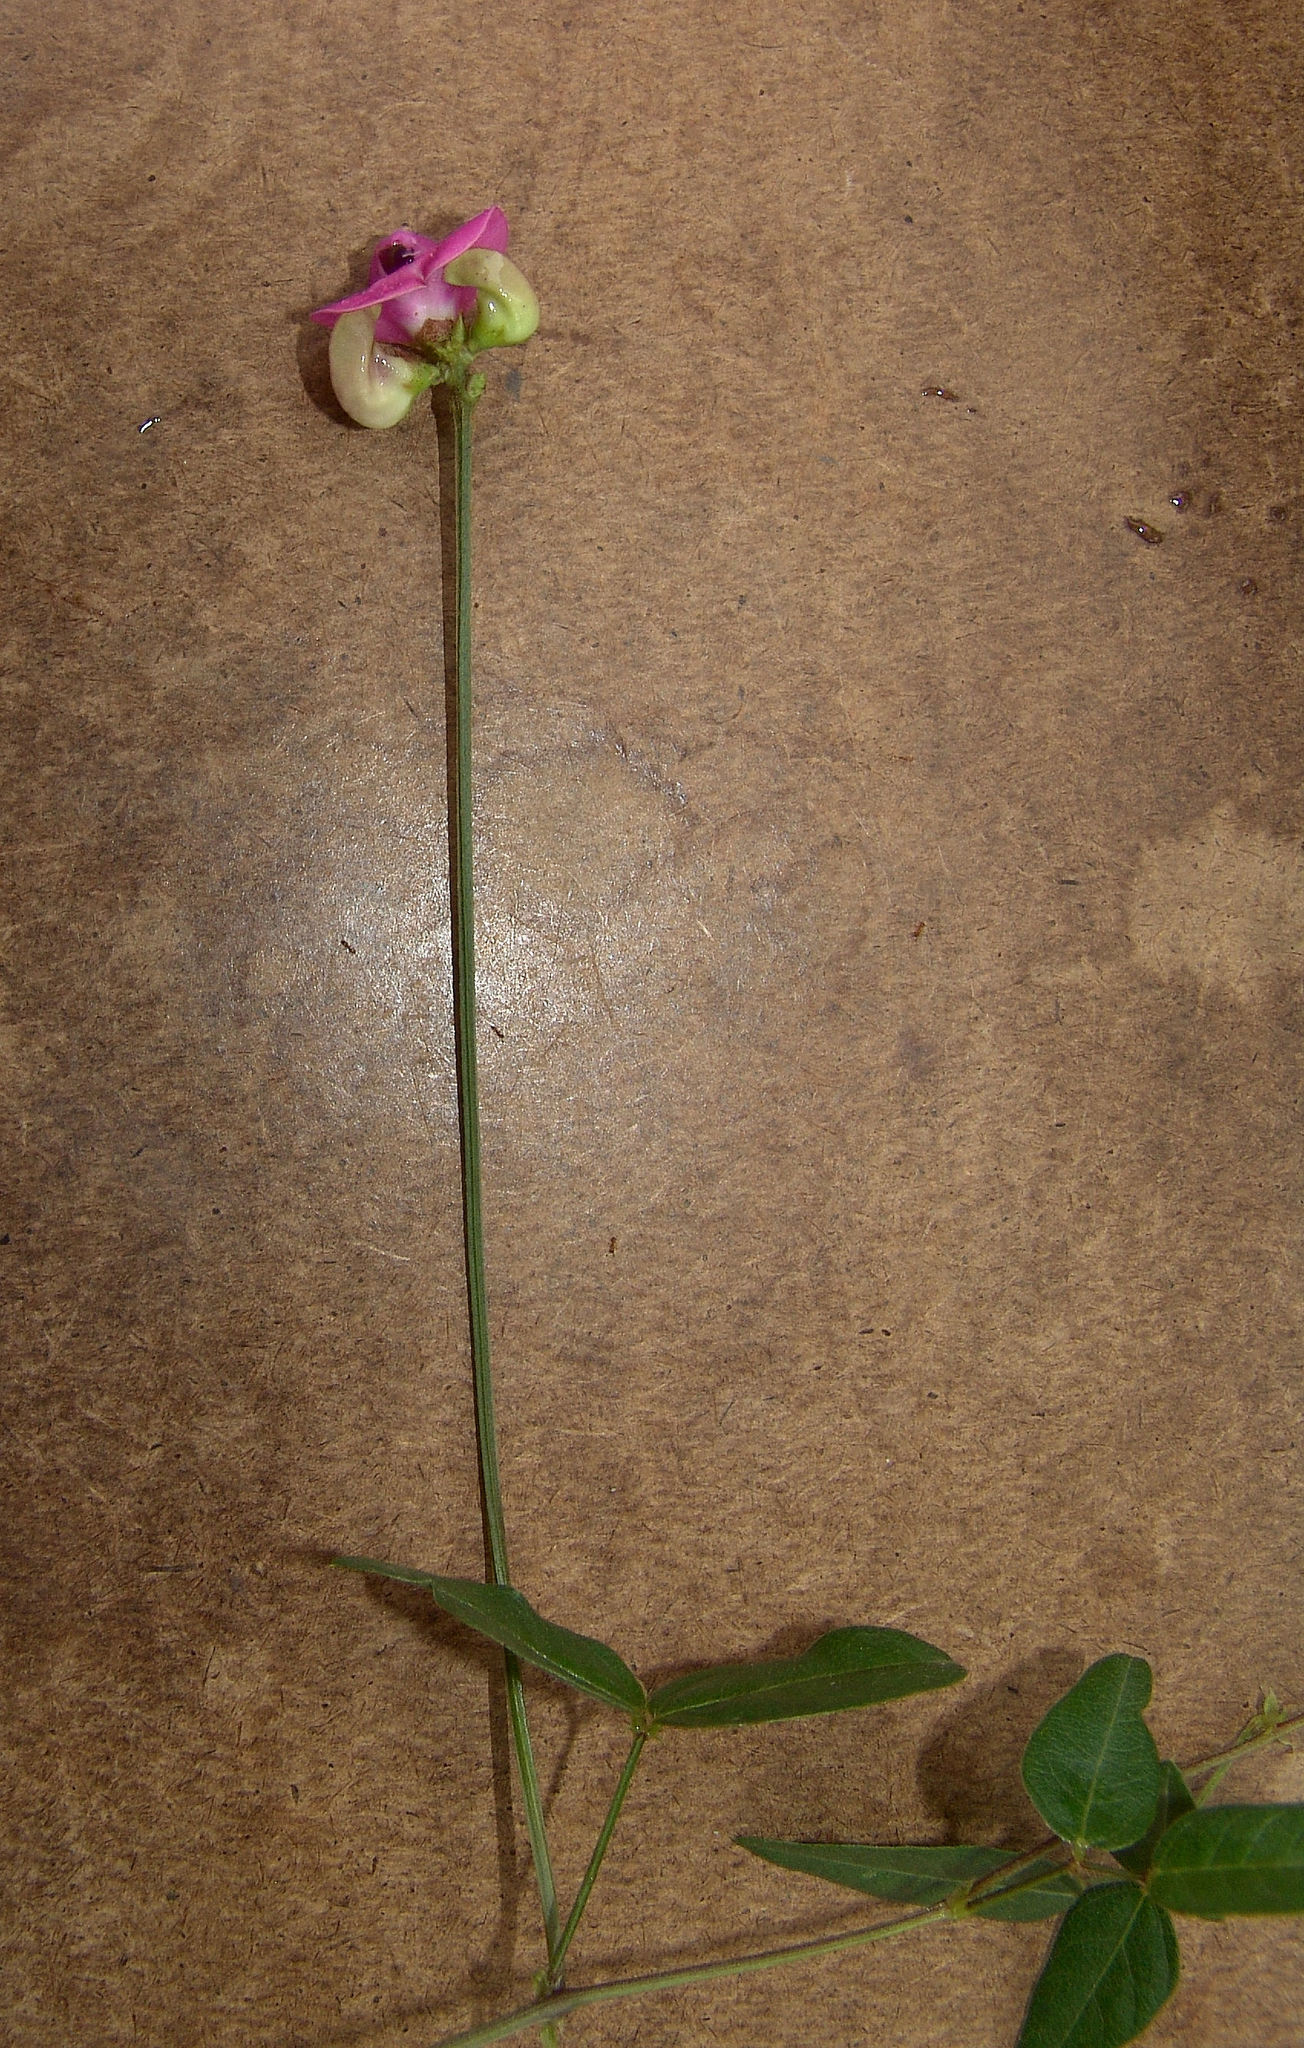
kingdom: Plantae
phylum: Tracheophyta
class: Magnoliopsida
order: Fabales
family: Fabaceae
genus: Strophostyles
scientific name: Strophostyles umbellata
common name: Perennial wild bean
